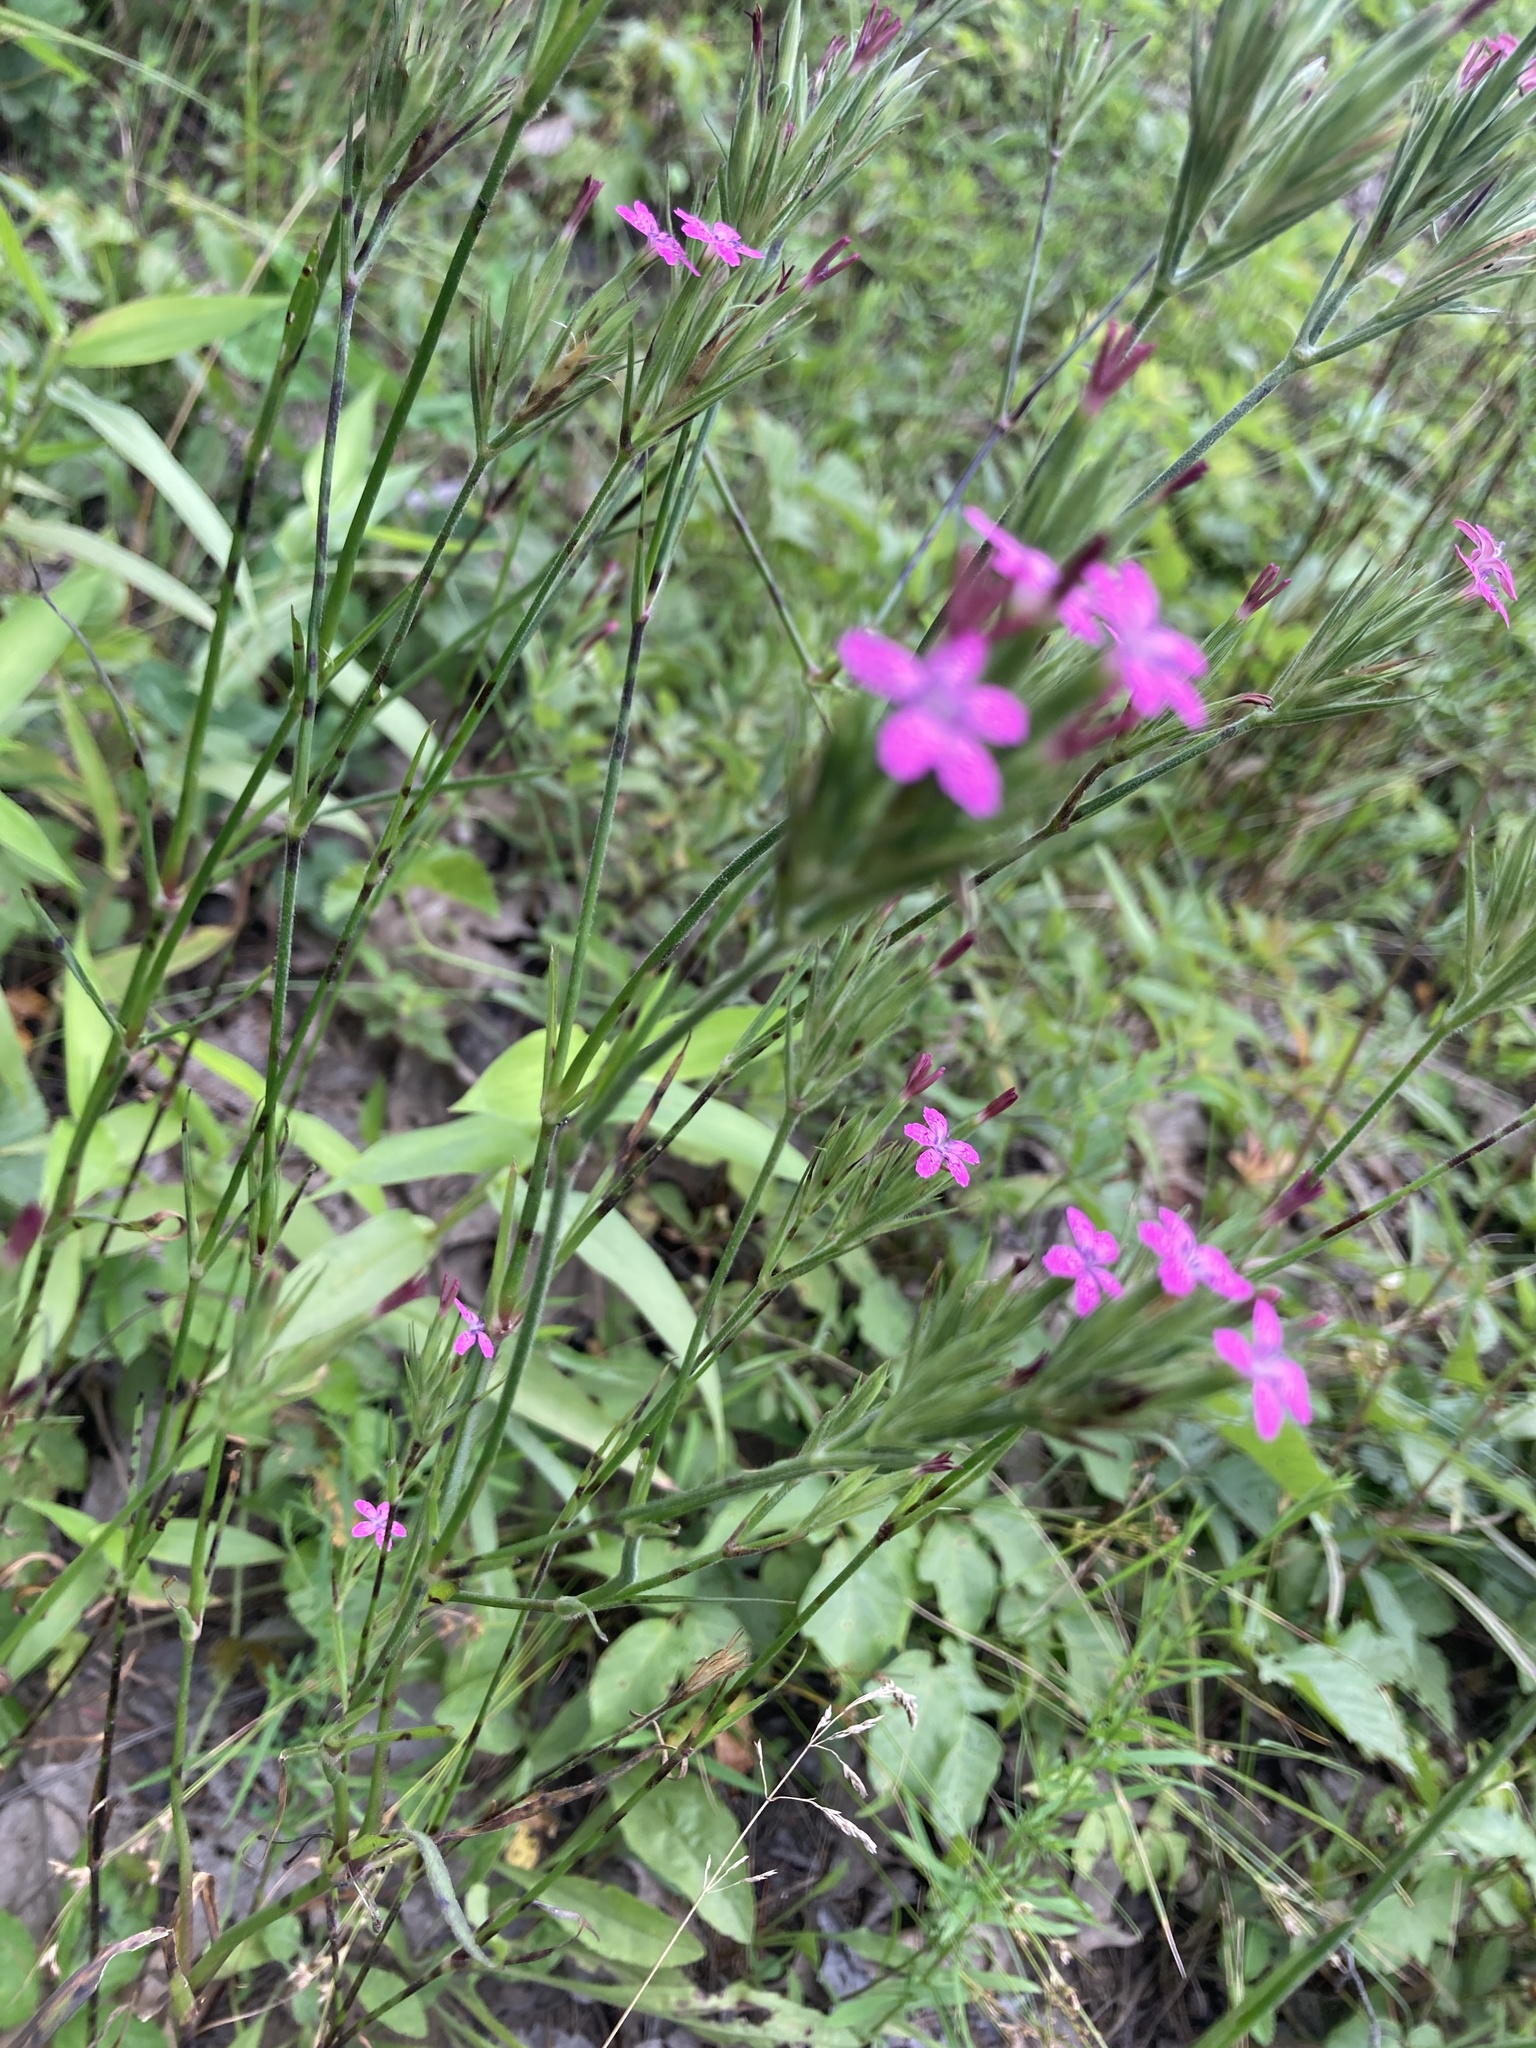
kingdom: Plantae
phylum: Tracheophyta
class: Magnoliopsida
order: Caryophyllales
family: Caryophyllaceae
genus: Dianthus
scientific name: Dianthus armeria
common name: Deptford pink
